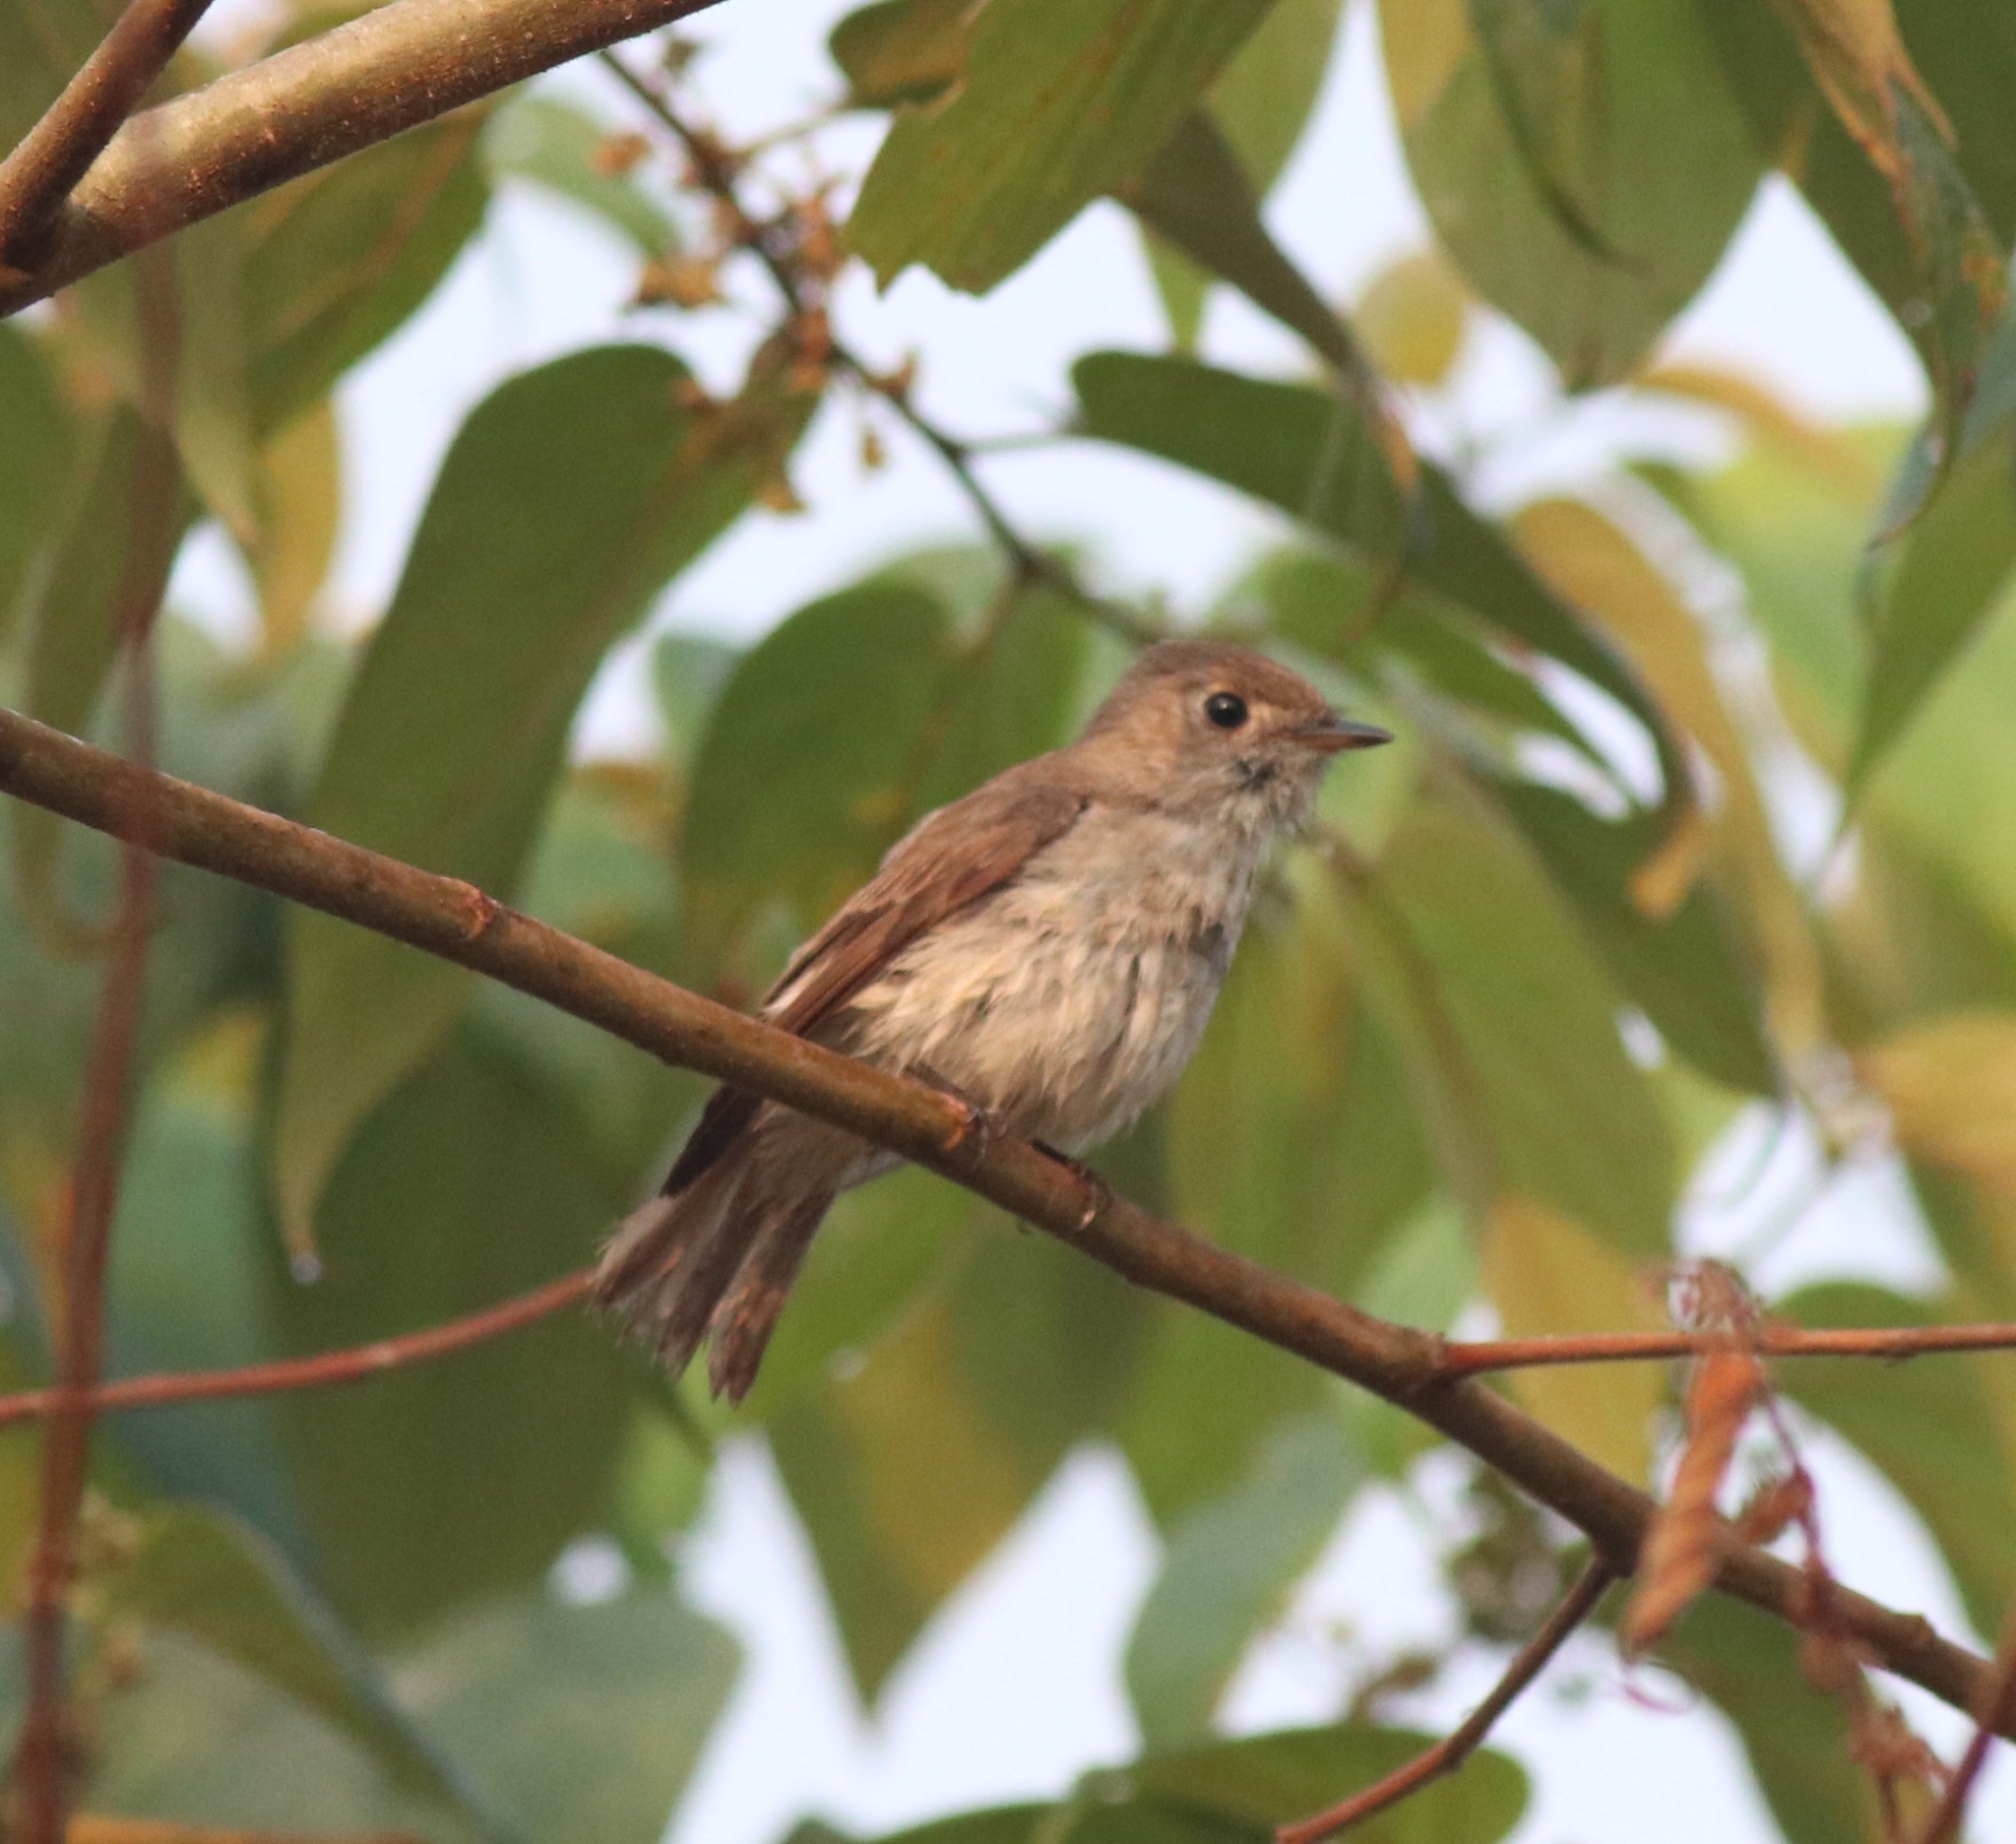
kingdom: Animalia
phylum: Chordata
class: Aves
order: Passeriformes
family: Muscicapidae
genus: Muscicapa
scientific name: Muscicapa latirostris
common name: Asian brown flycatcher
